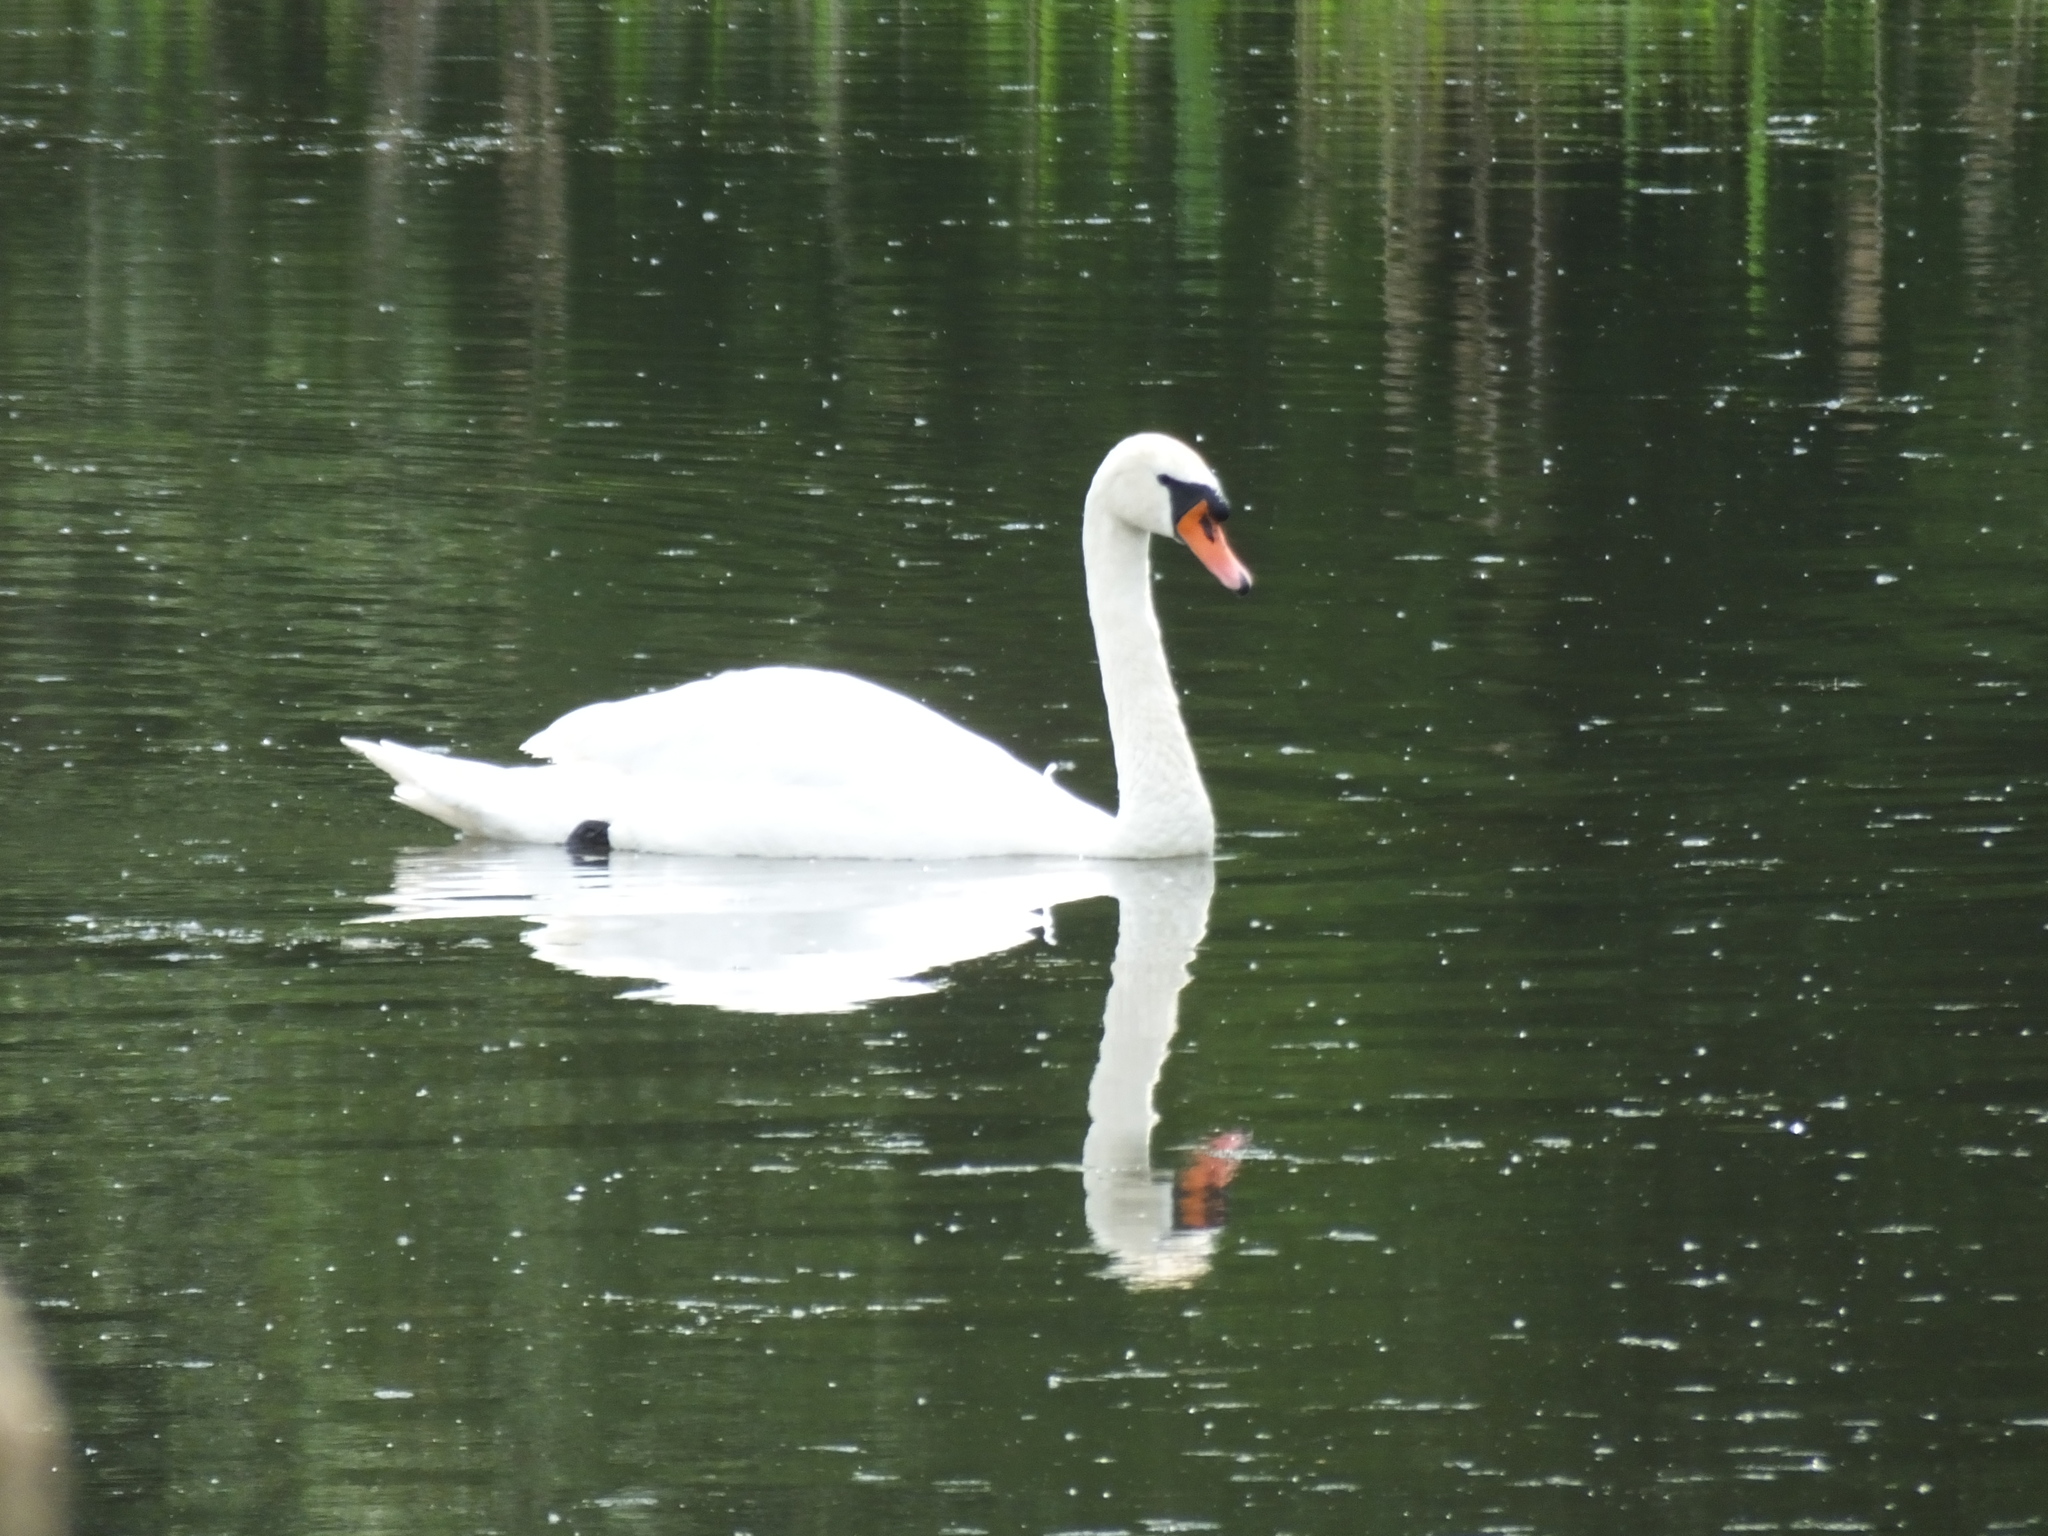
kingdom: Animalia
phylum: Chordata
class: Aves
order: Anseriformes
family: Anatidae
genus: Cygnus
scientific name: Cygnus olor
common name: Mute swan
